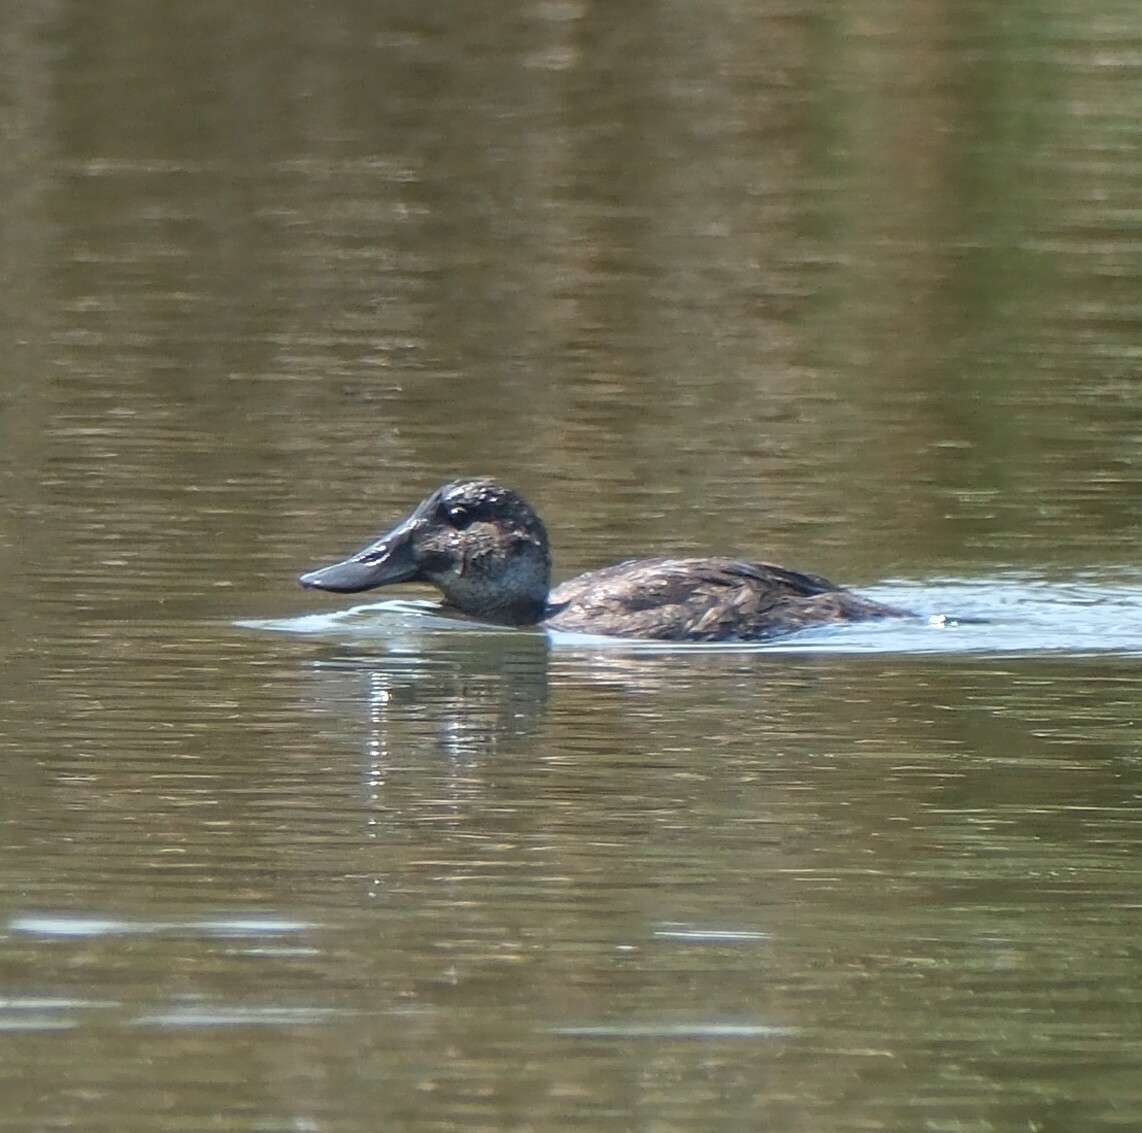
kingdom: Animalia
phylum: Chordata
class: Aves
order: Anseriformes
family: Anatidae
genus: Oxyura
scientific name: Oxyura ferruginea
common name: Andean duck
